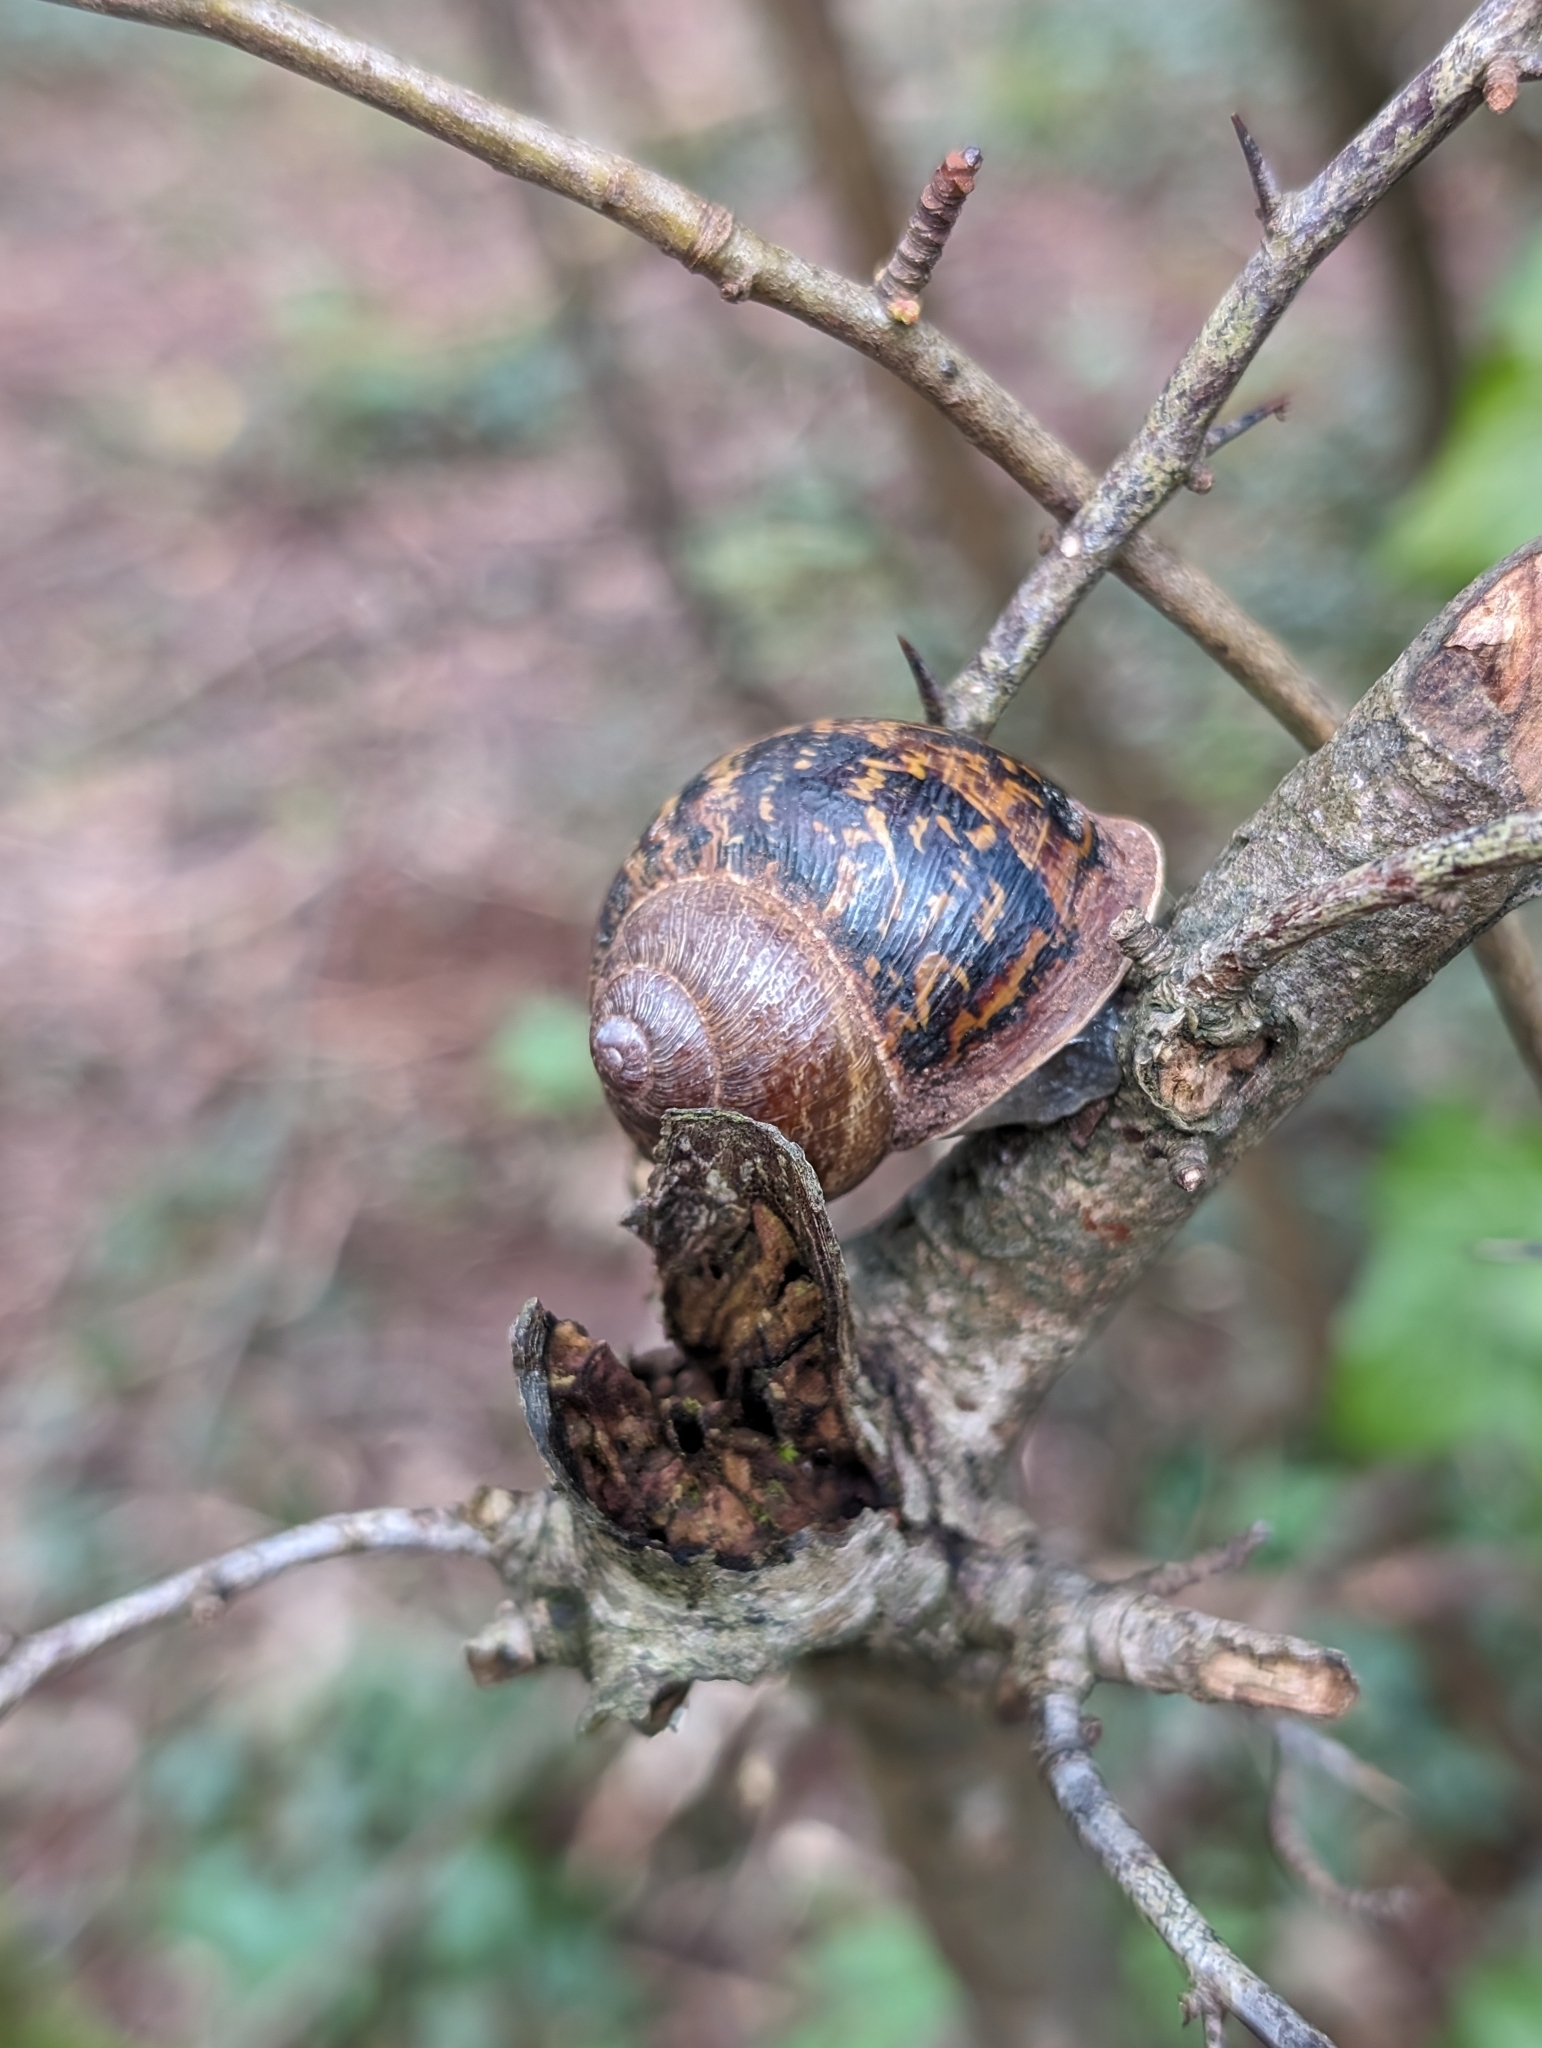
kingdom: Animalia
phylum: Mollusca
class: Gastropoda
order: Stylommatophora
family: Helicidae
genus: Cornu
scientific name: Cornu aspersum
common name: Brown garden snail
